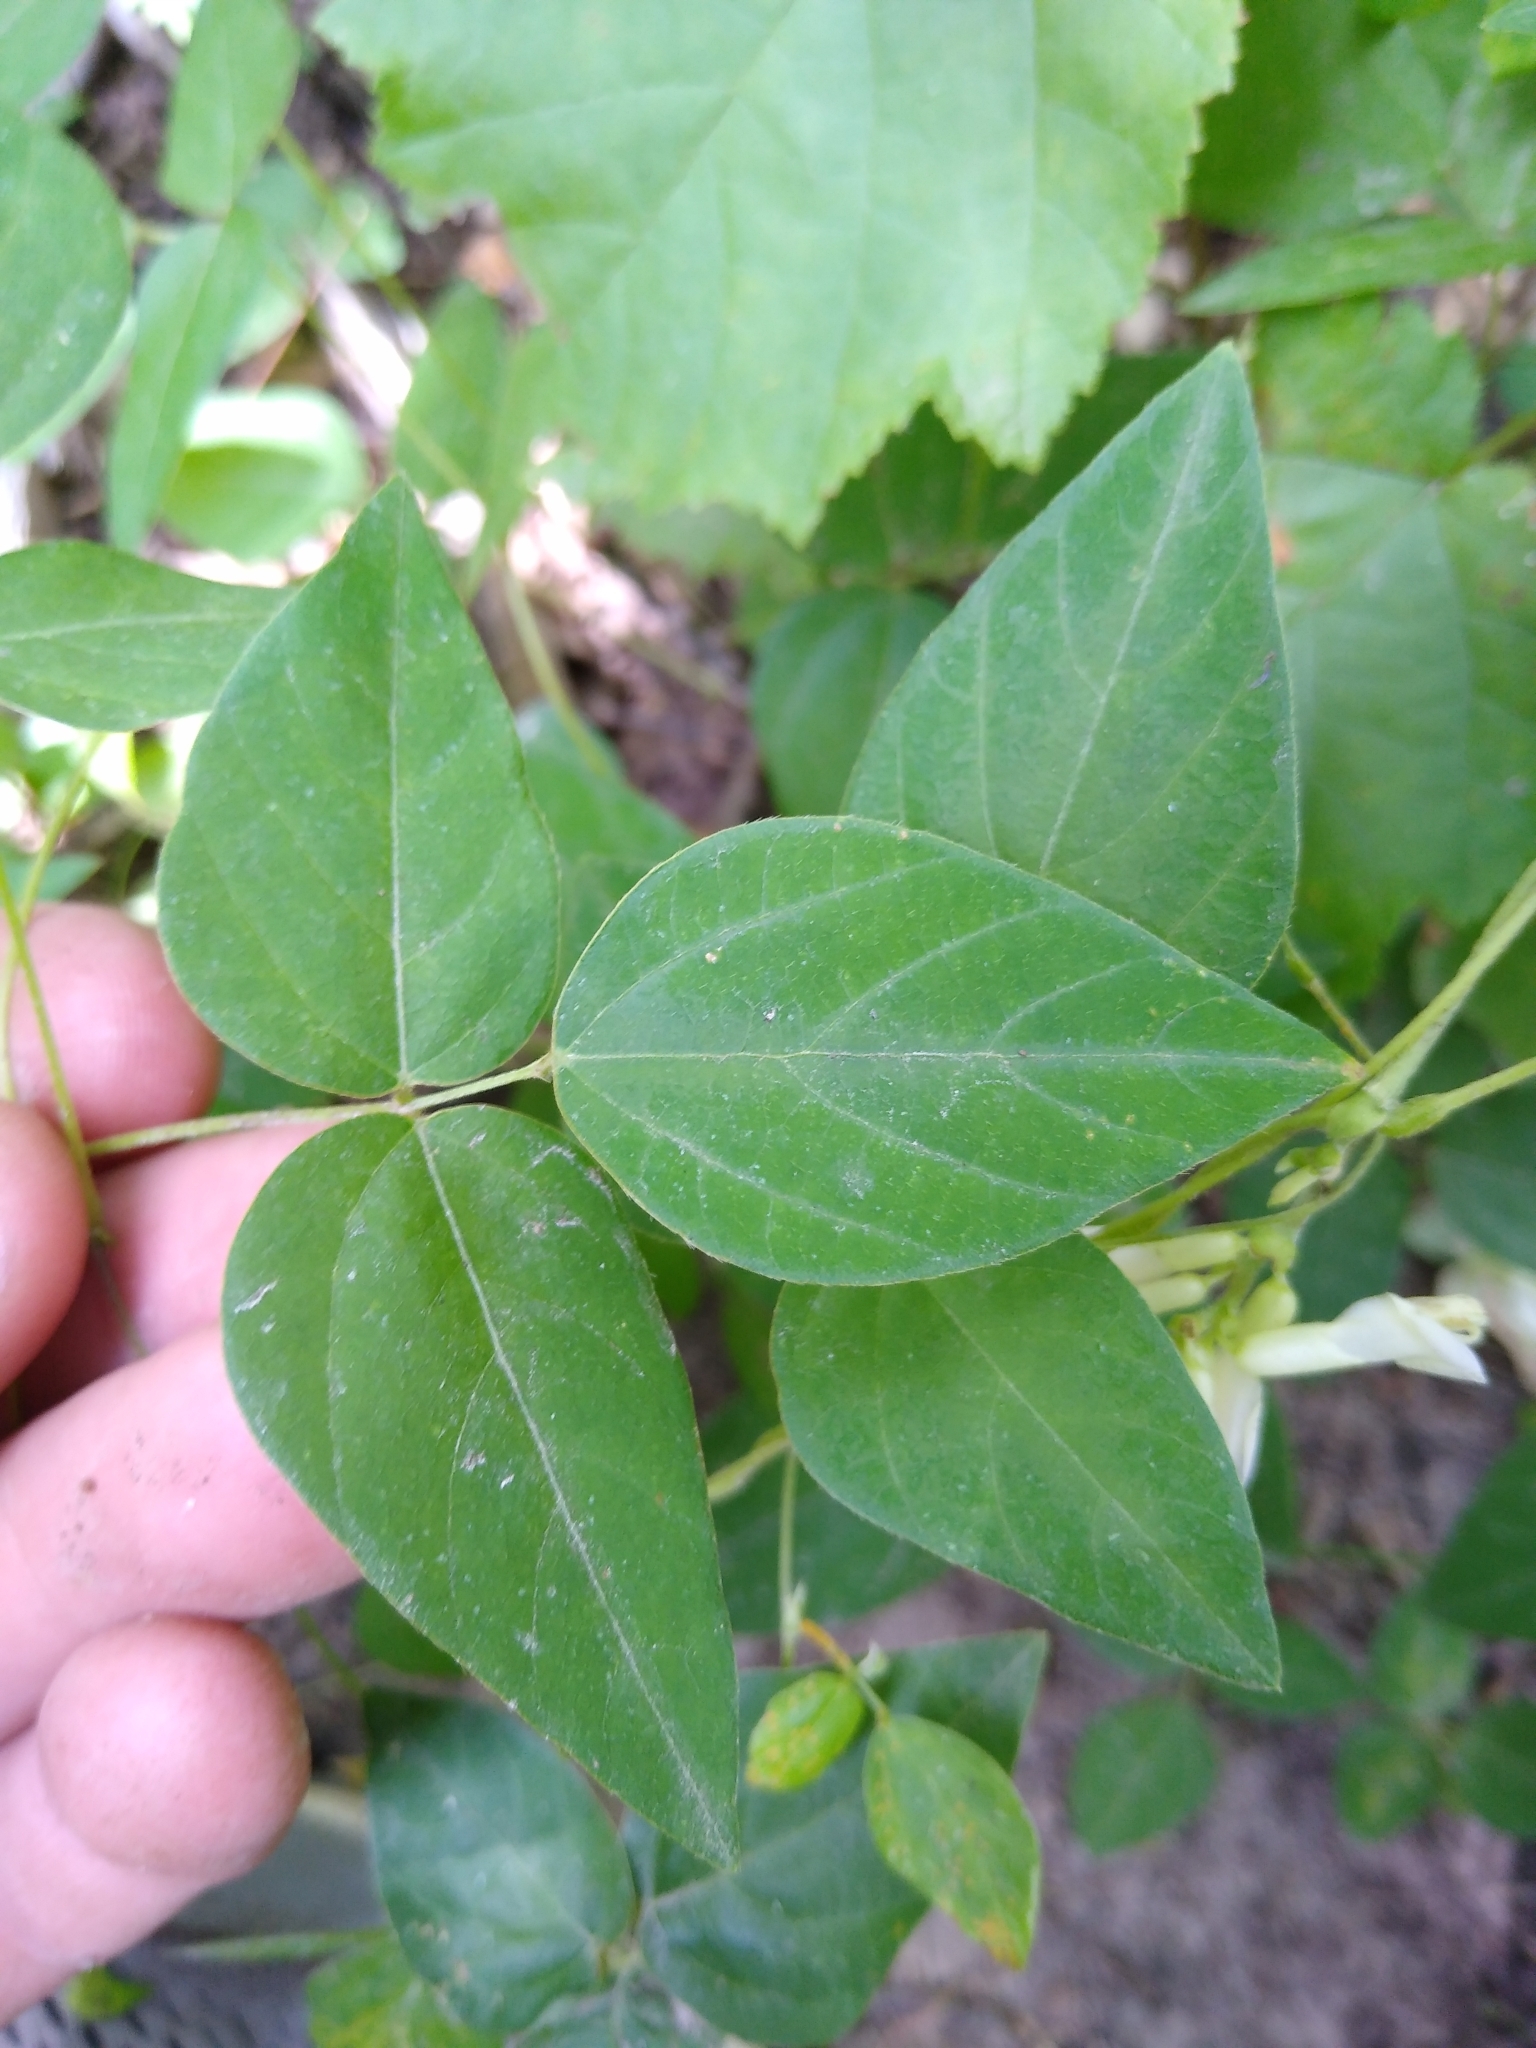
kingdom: Plantae
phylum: Tracheophyta
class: Magnoliopsida
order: Fabales
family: Fabaceae
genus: Amphicarpaea
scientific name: Amphicarpaea bracteata
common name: American hog peanut
